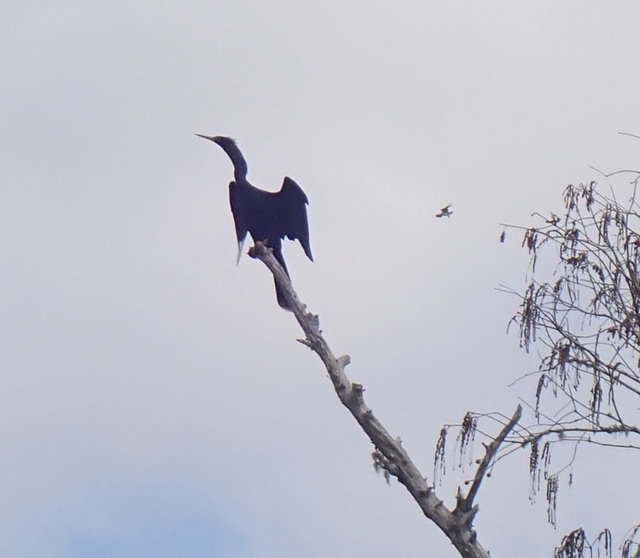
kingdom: Animalia
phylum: Chordata
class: Aves
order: Suliformes
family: Anhingidae
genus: Anhinga
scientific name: Anhinga anhinga
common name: Anhinga
